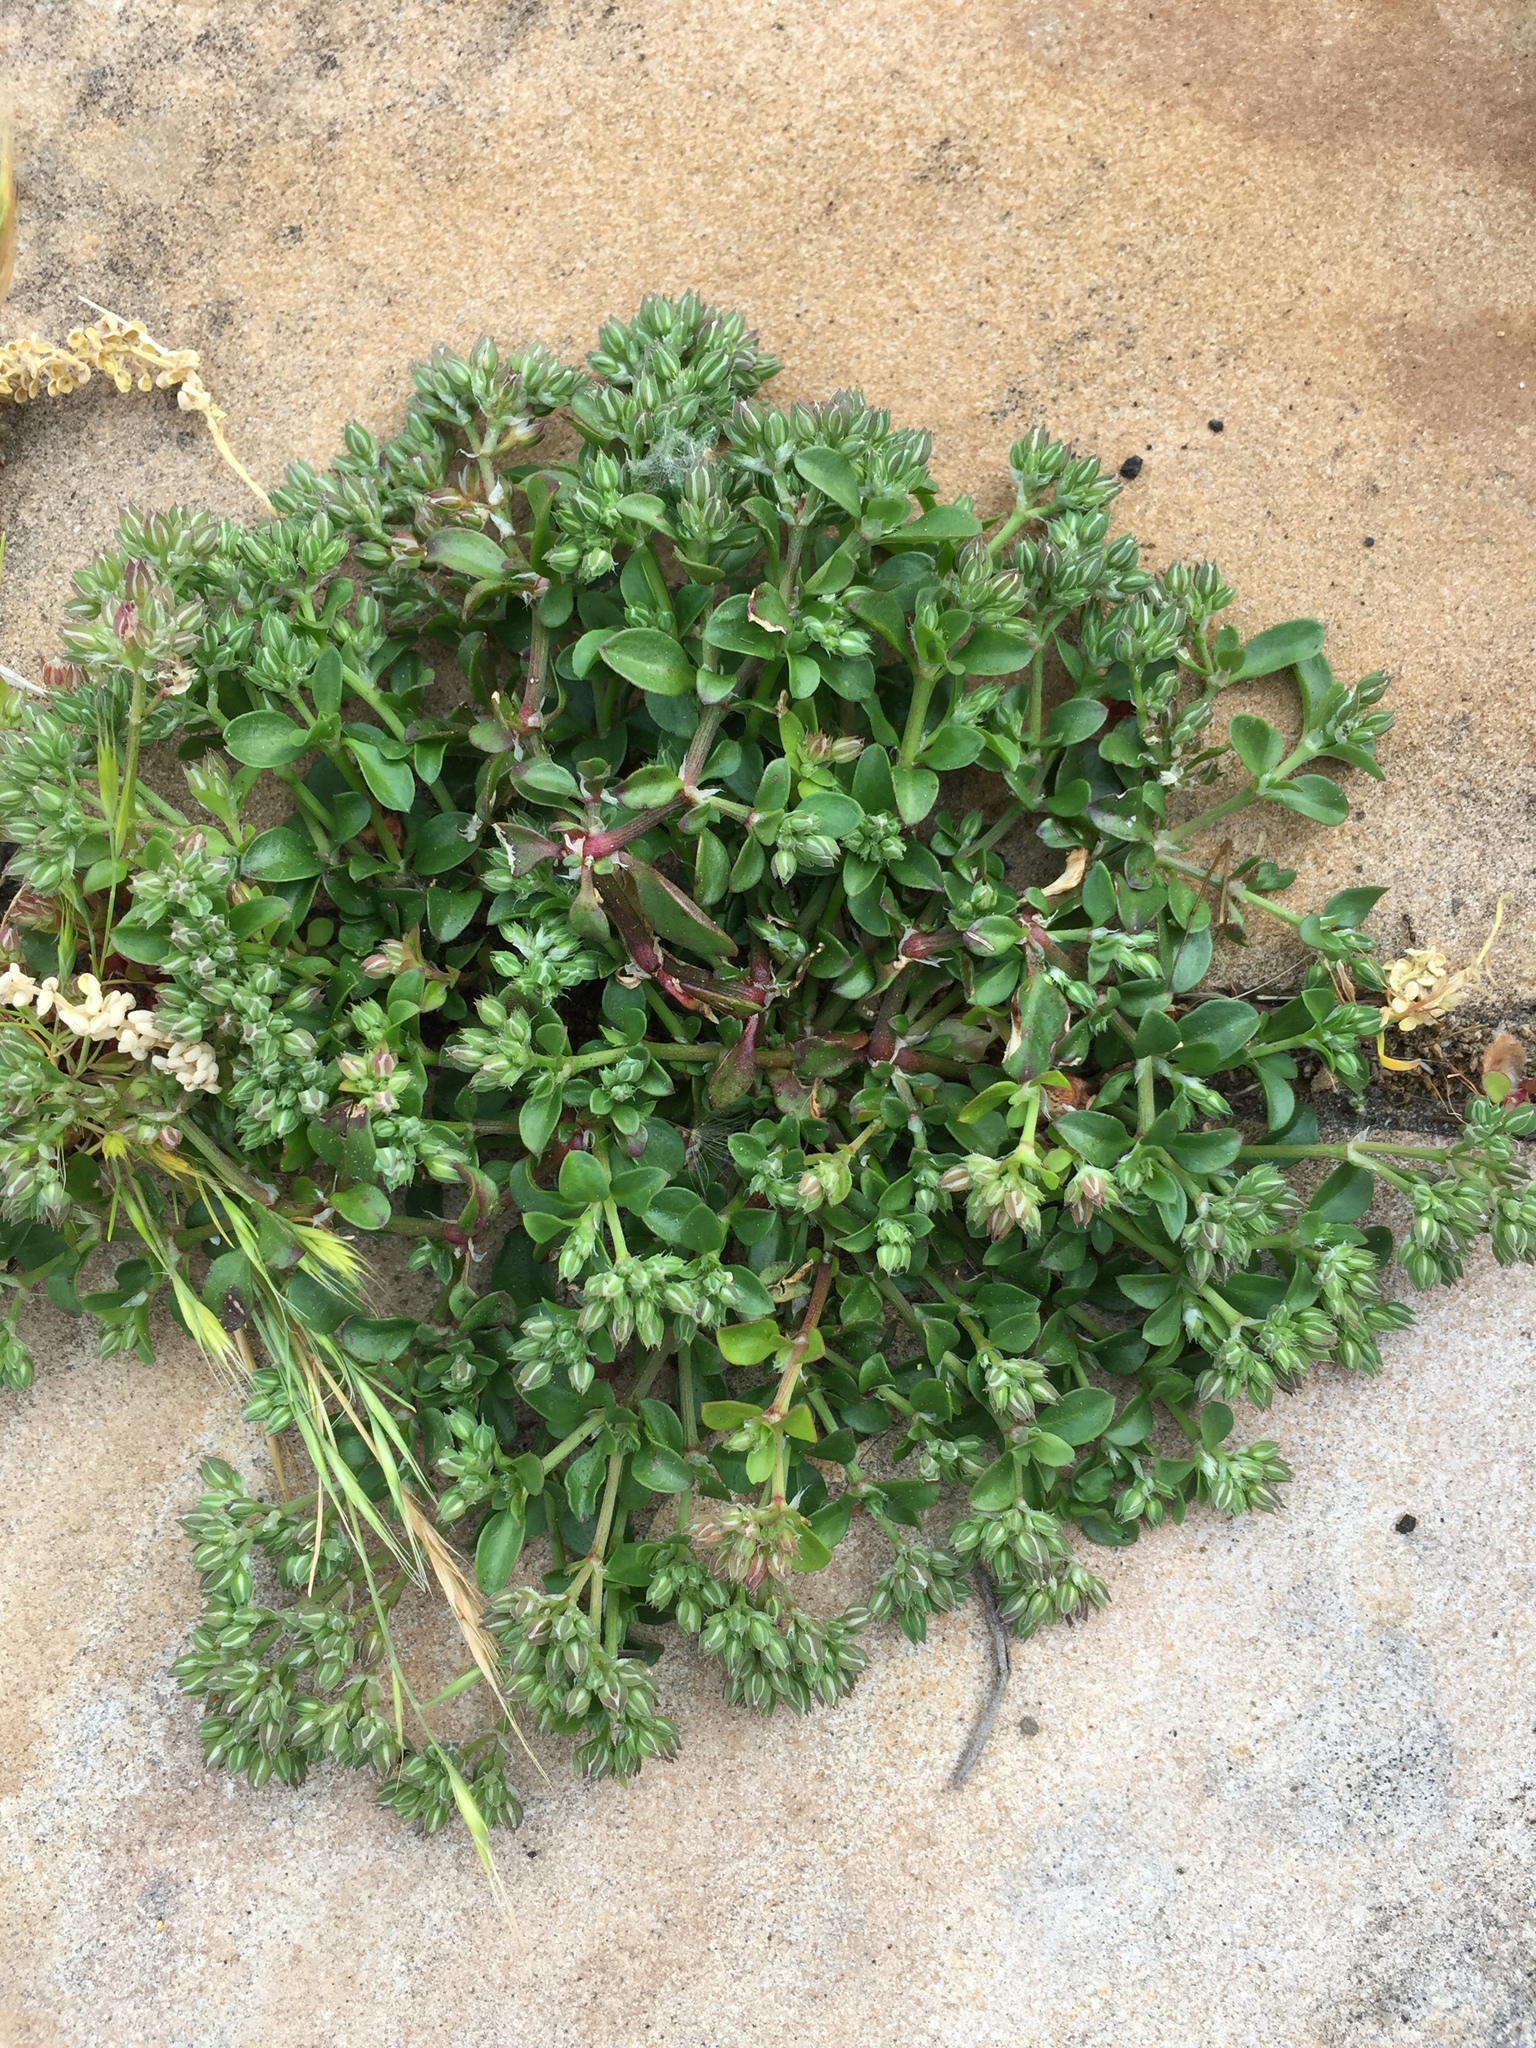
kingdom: Plantae
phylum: Tracheophyta
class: Magnoliopsida
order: Caryophyllales
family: Caryophyllaceae
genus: Polycarpon
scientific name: Polycarpon tetraphyllum
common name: Four-leaved all-seed
